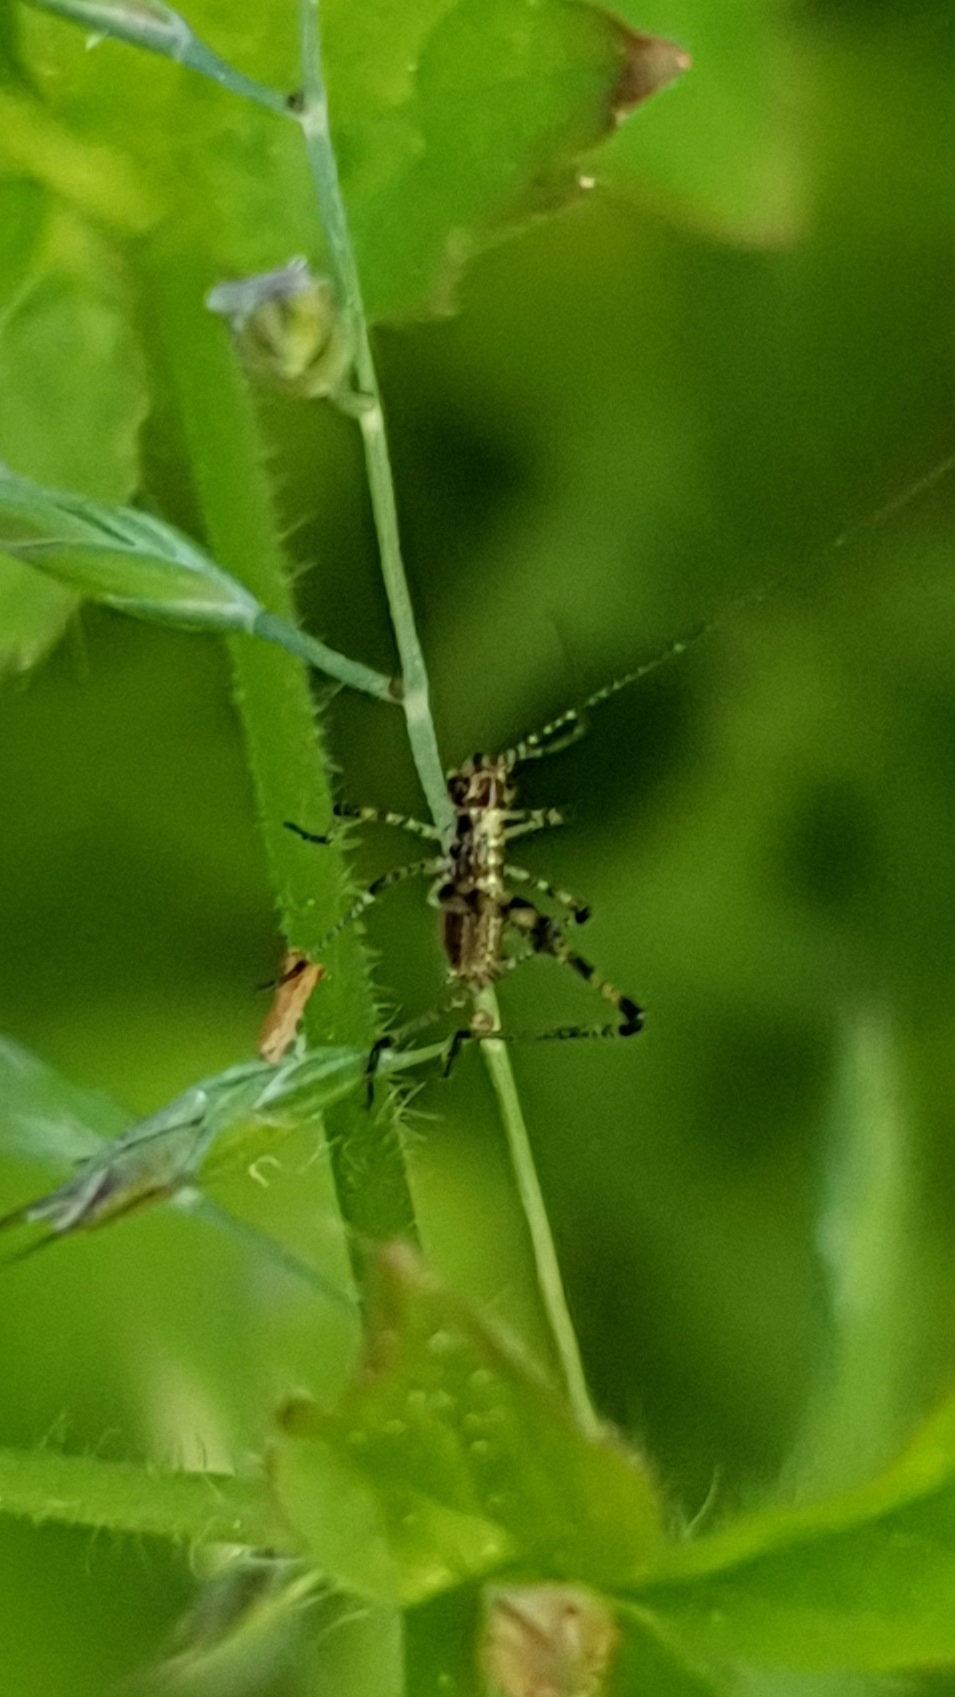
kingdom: Animalia
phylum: Arthropoda
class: Insecta
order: Orthoptera
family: Tettigoniidae
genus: Phaneroptera
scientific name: Phaneroptera nana
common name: Southern sickle bush-cricket
